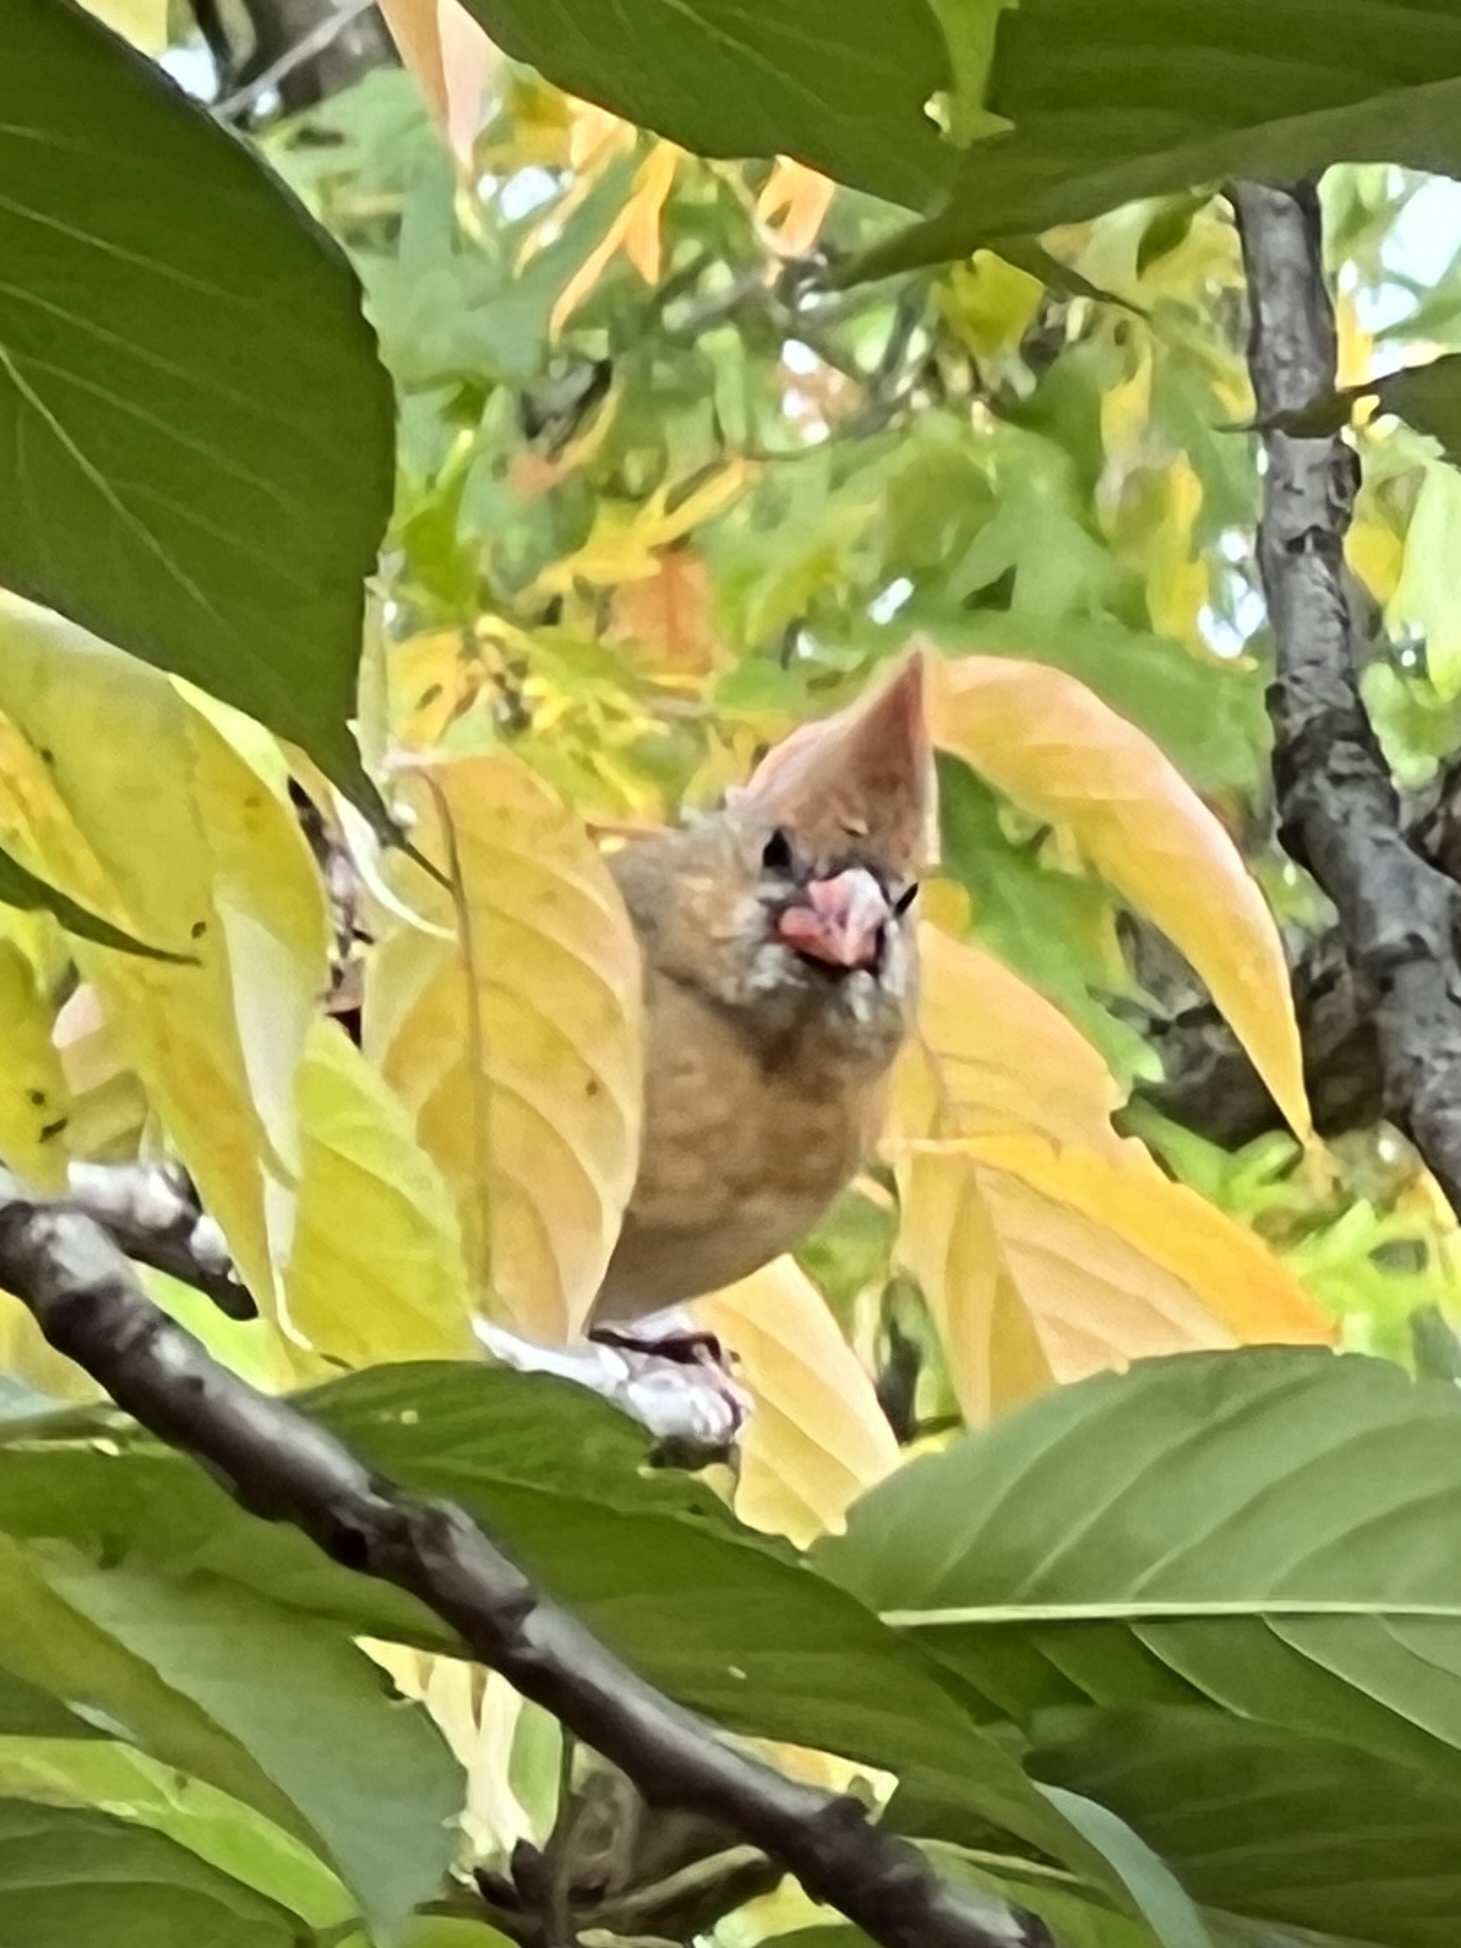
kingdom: Animalia
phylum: Chordata
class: Aves
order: Passeriformes
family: Cardinalidae
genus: Cardinalis
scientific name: Cardinalis cardinalis
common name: Northern cardinal
